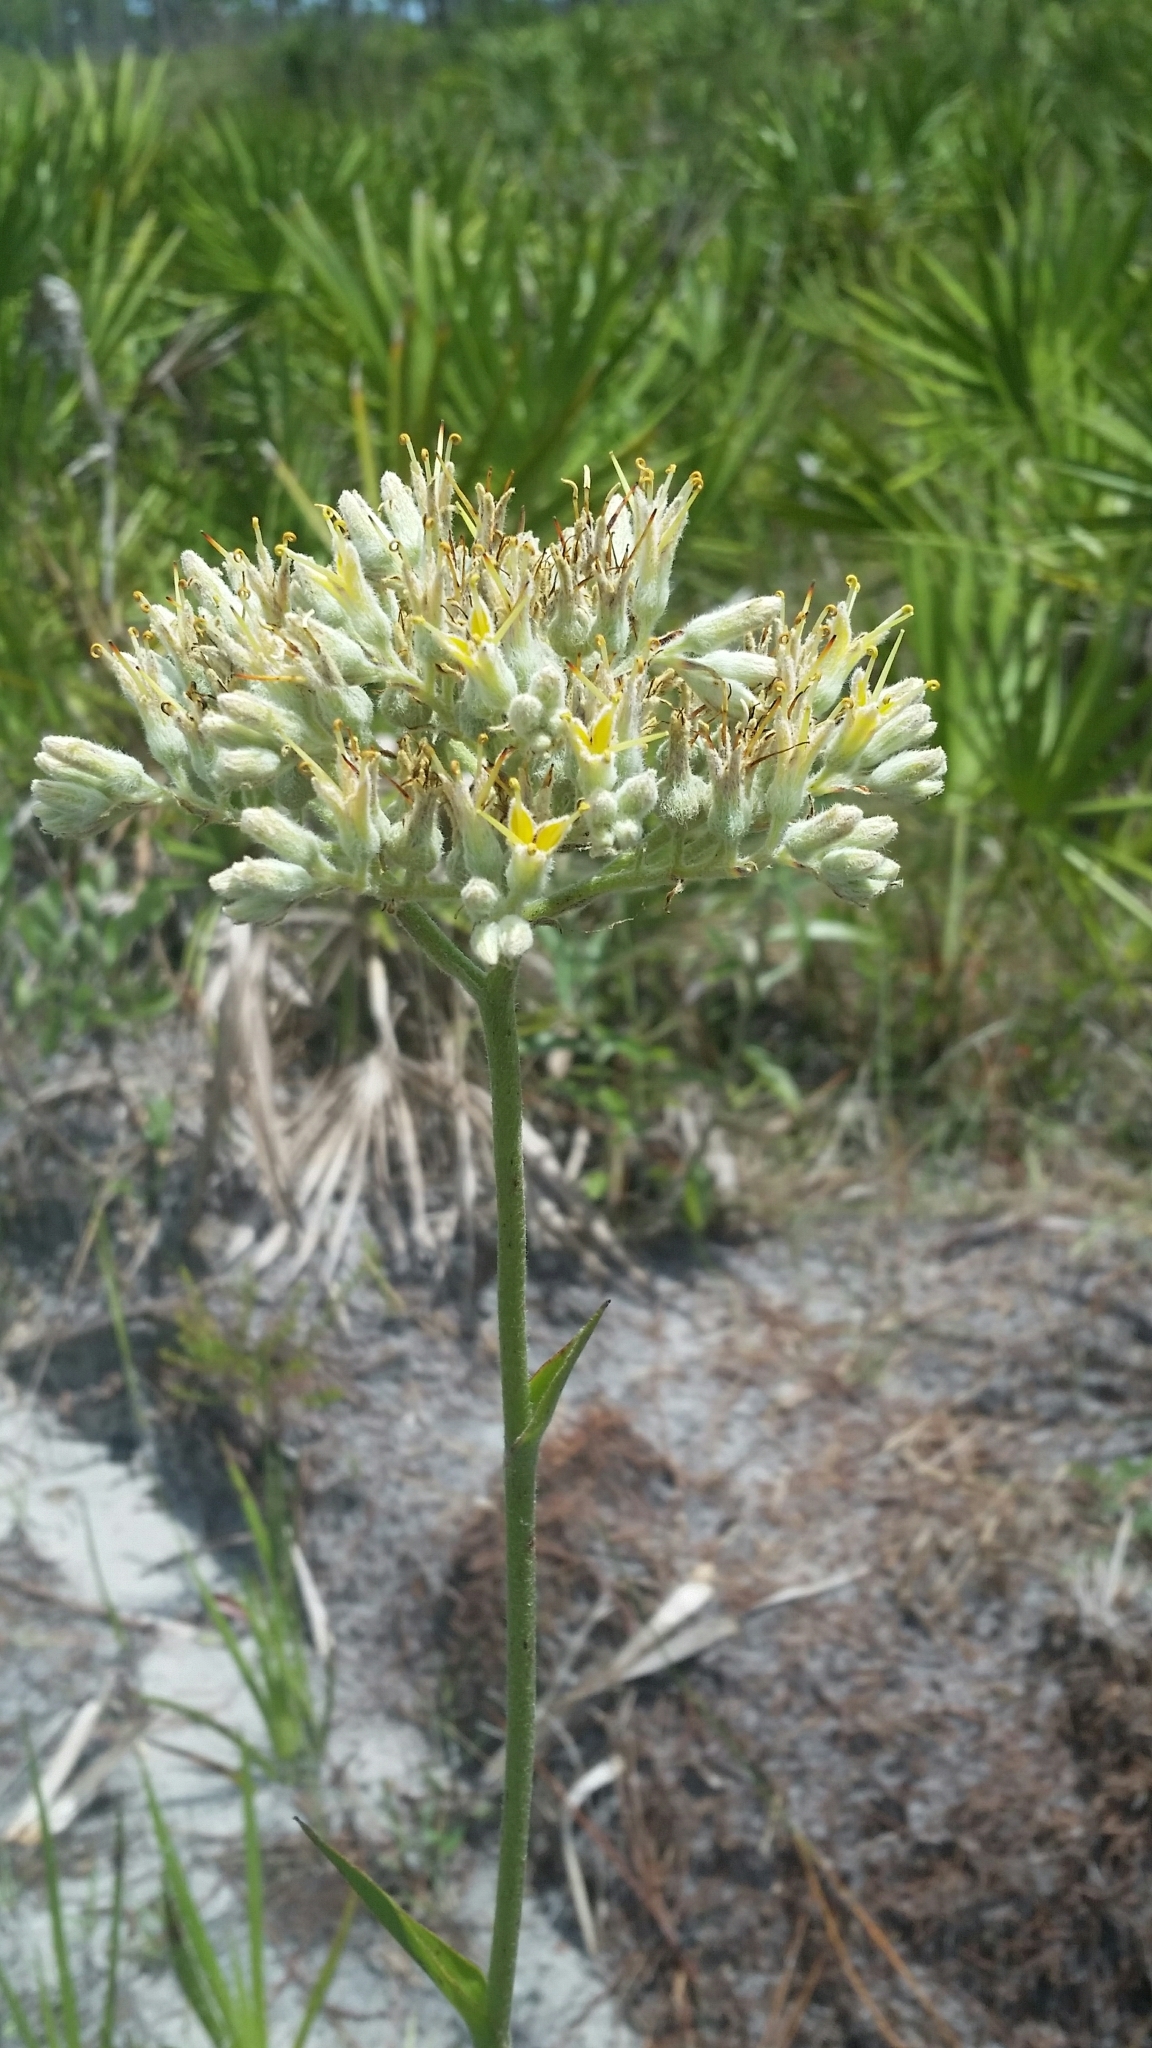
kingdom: Plantae
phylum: Tracheophyta
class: Liliopsida
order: Commelinales
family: Haemodoraceae
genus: Lachnanthes
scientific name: Lachnanthes caroliana
